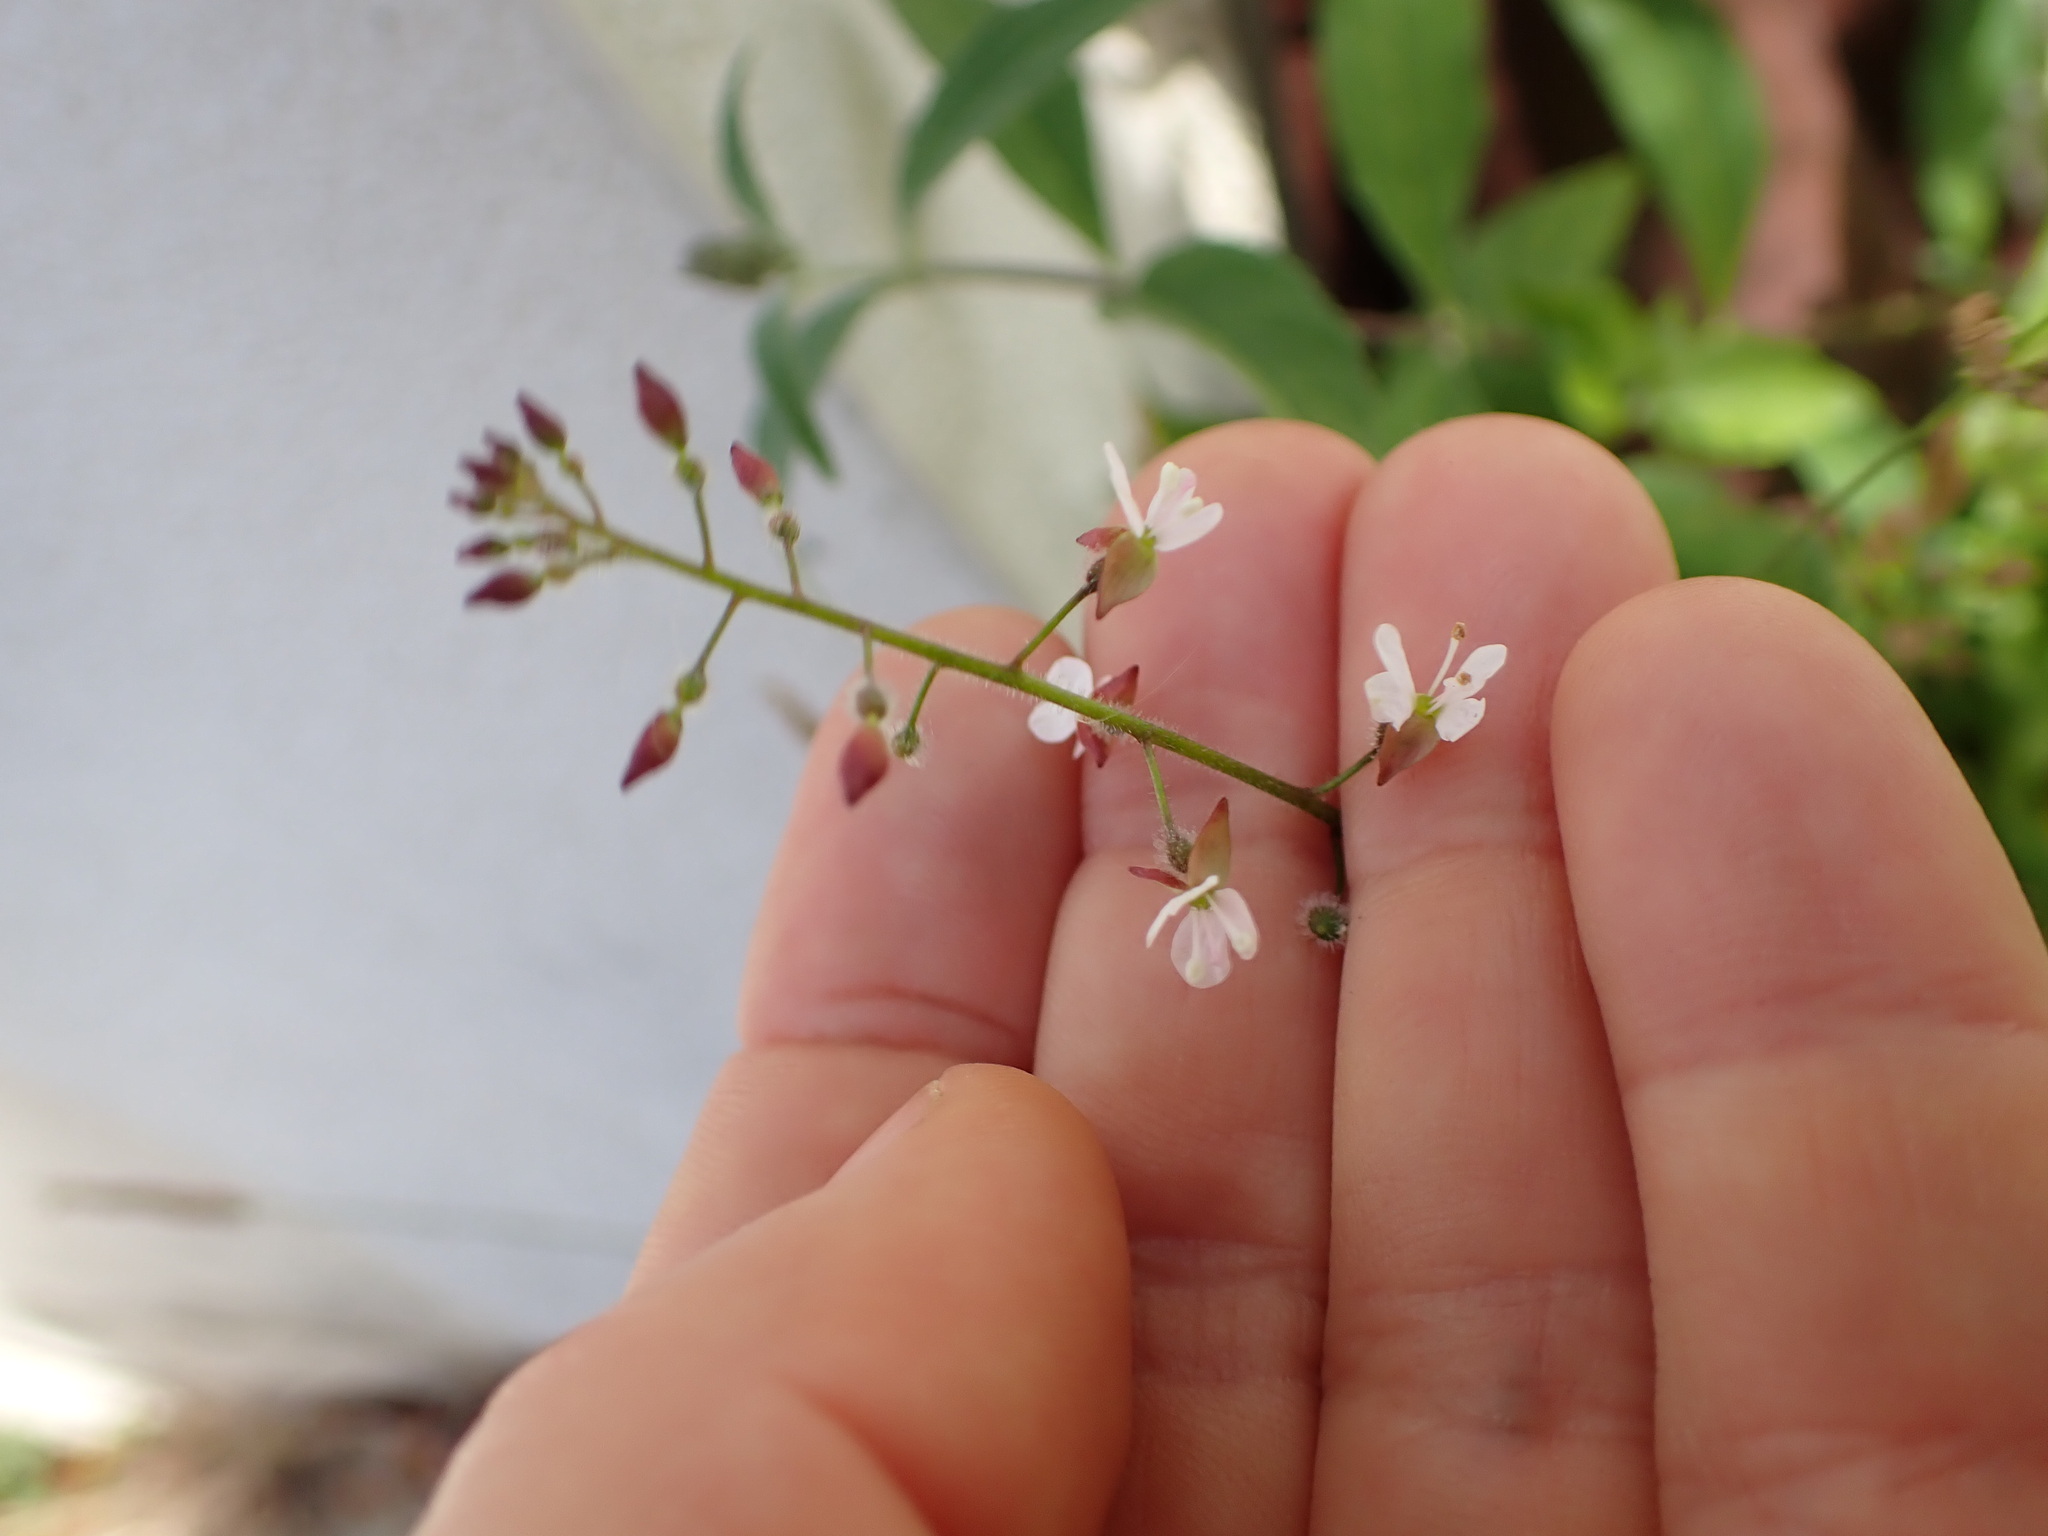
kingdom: Plantae
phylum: Tracheophyta
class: Magnoliopsida
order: Myrtales
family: Onagraceae
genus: Circaea
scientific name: Circaea lutetiana
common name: Enchanter's-nightshade
